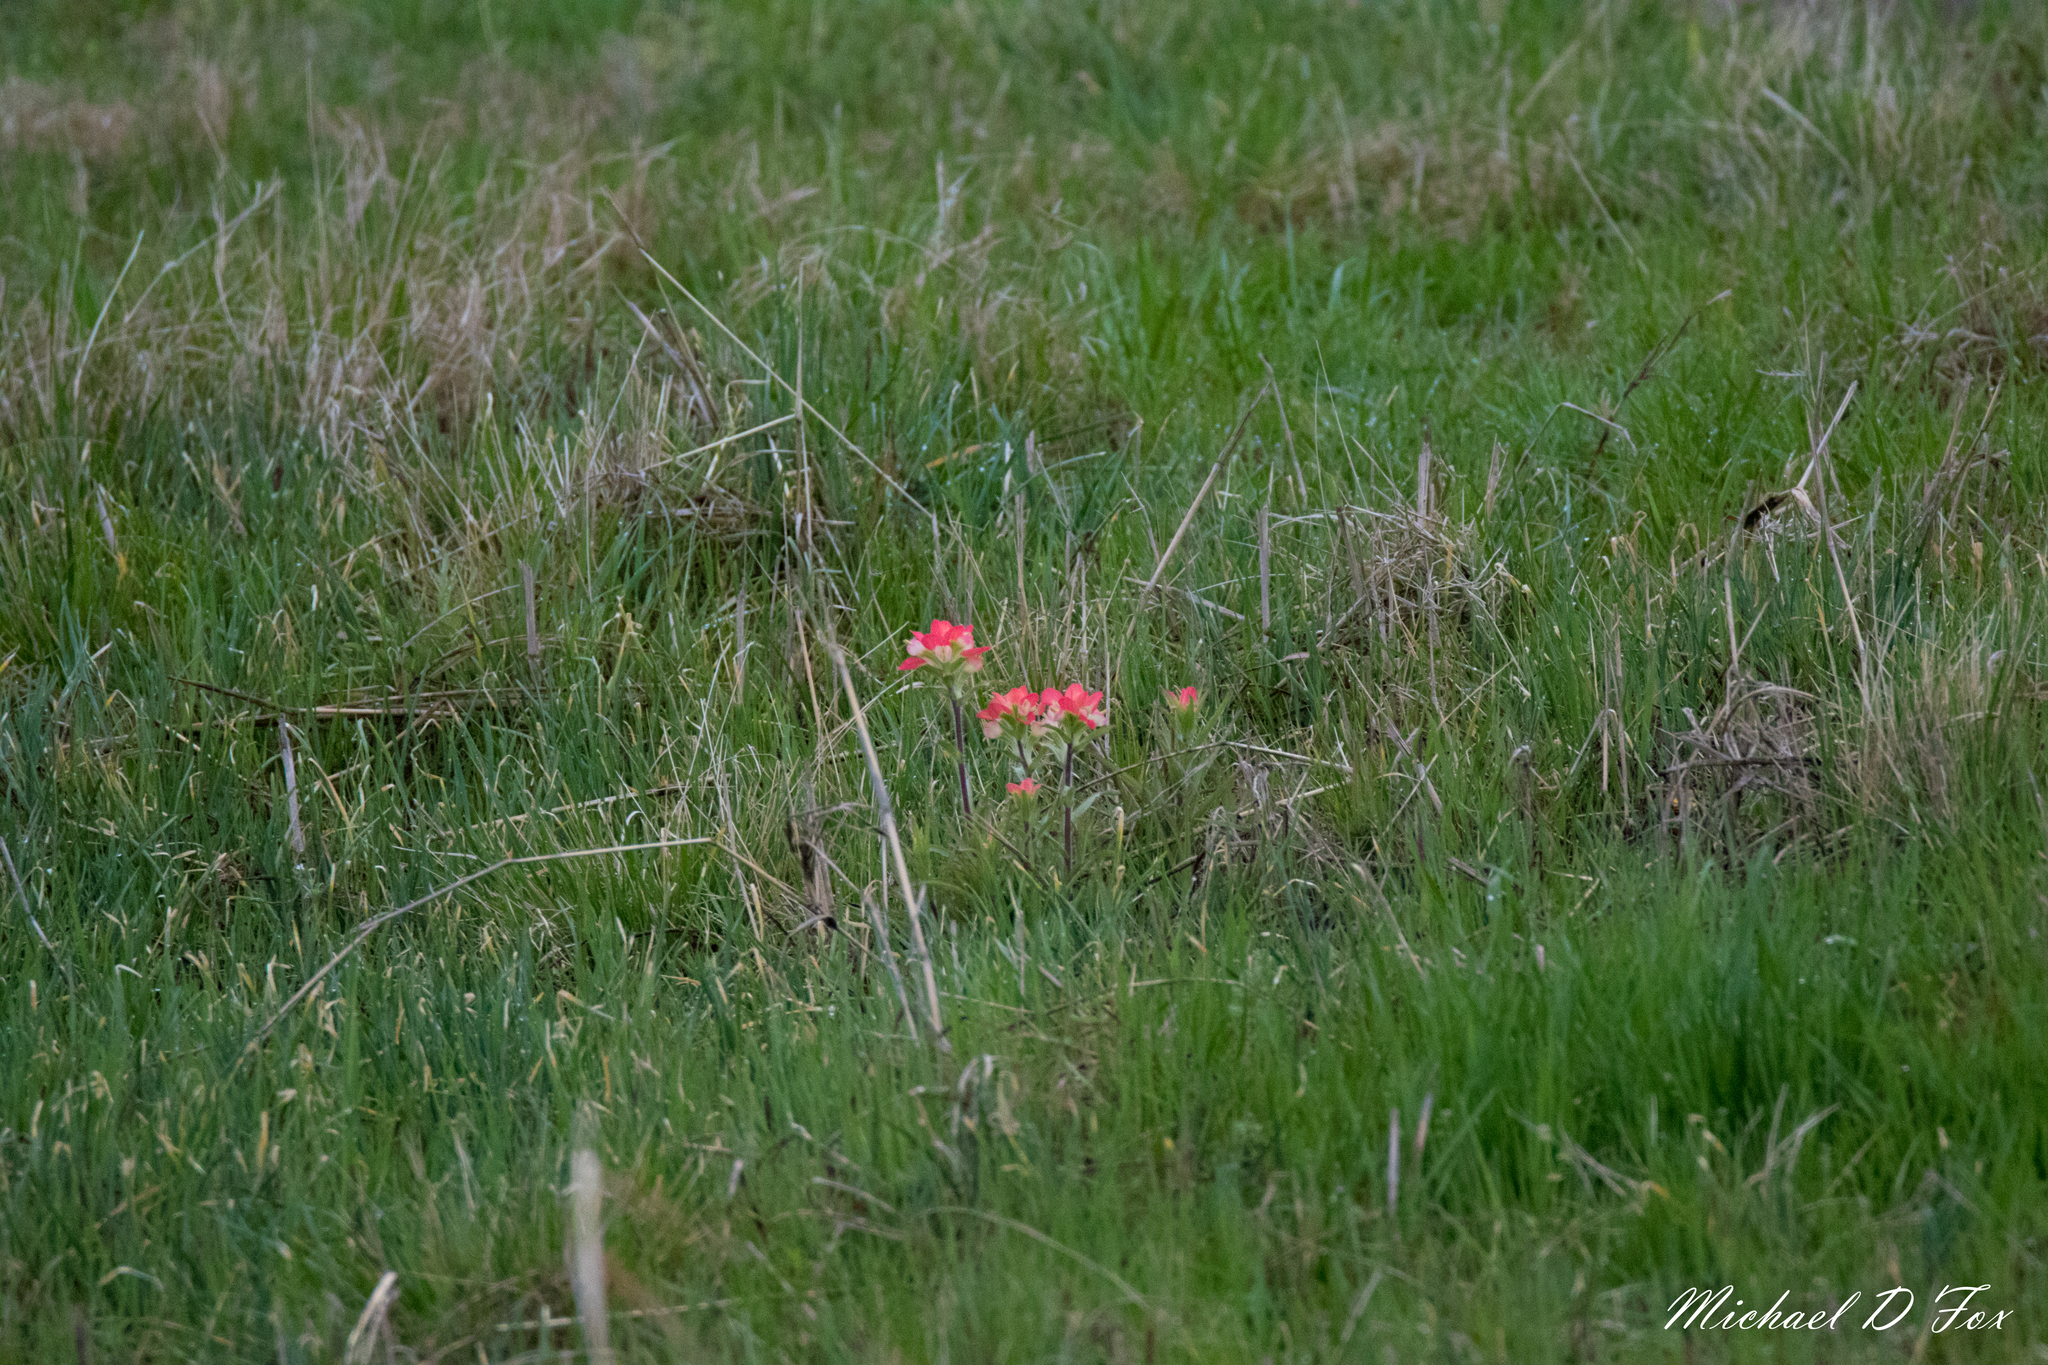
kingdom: Plantae
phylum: Tracheophyta
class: Magnoliopsida
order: Lamiales
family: Orobanchaceae
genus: Castilleja
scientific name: Castilleja indivisa
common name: Texas paintbrush
